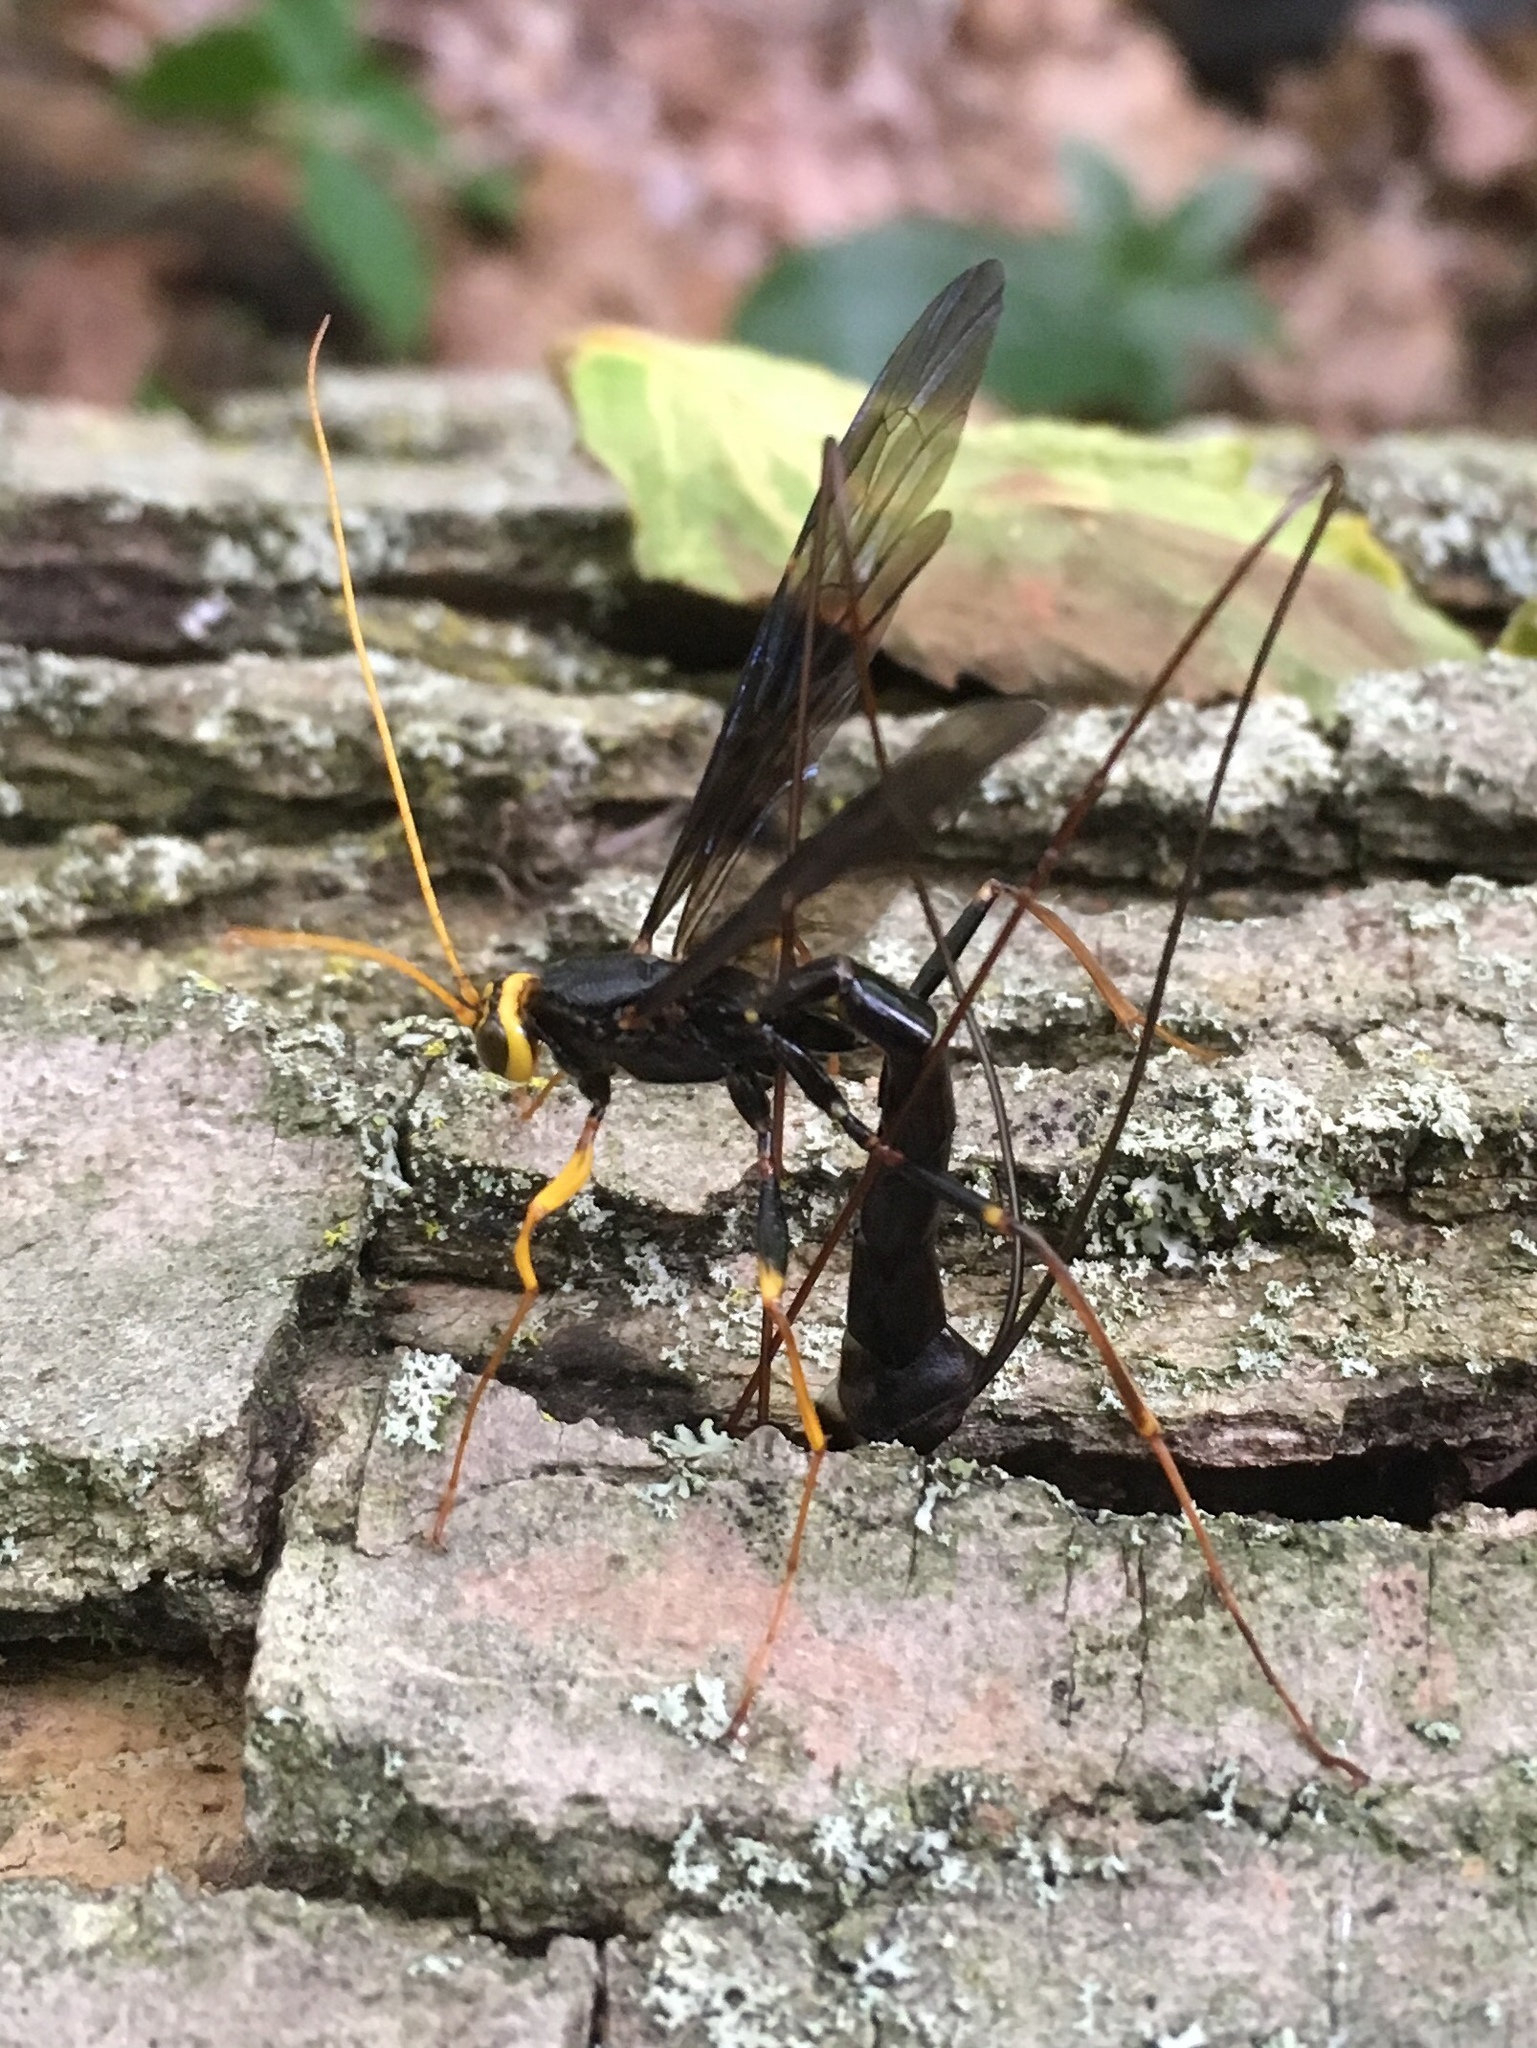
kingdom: Animalia
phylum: Arthropoda
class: Insecta
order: Hymenoptera
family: Ichneumonidae
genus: Megarhyssa
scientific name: Megarhyssa atrata
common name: Black giant ichneumonid wasp
